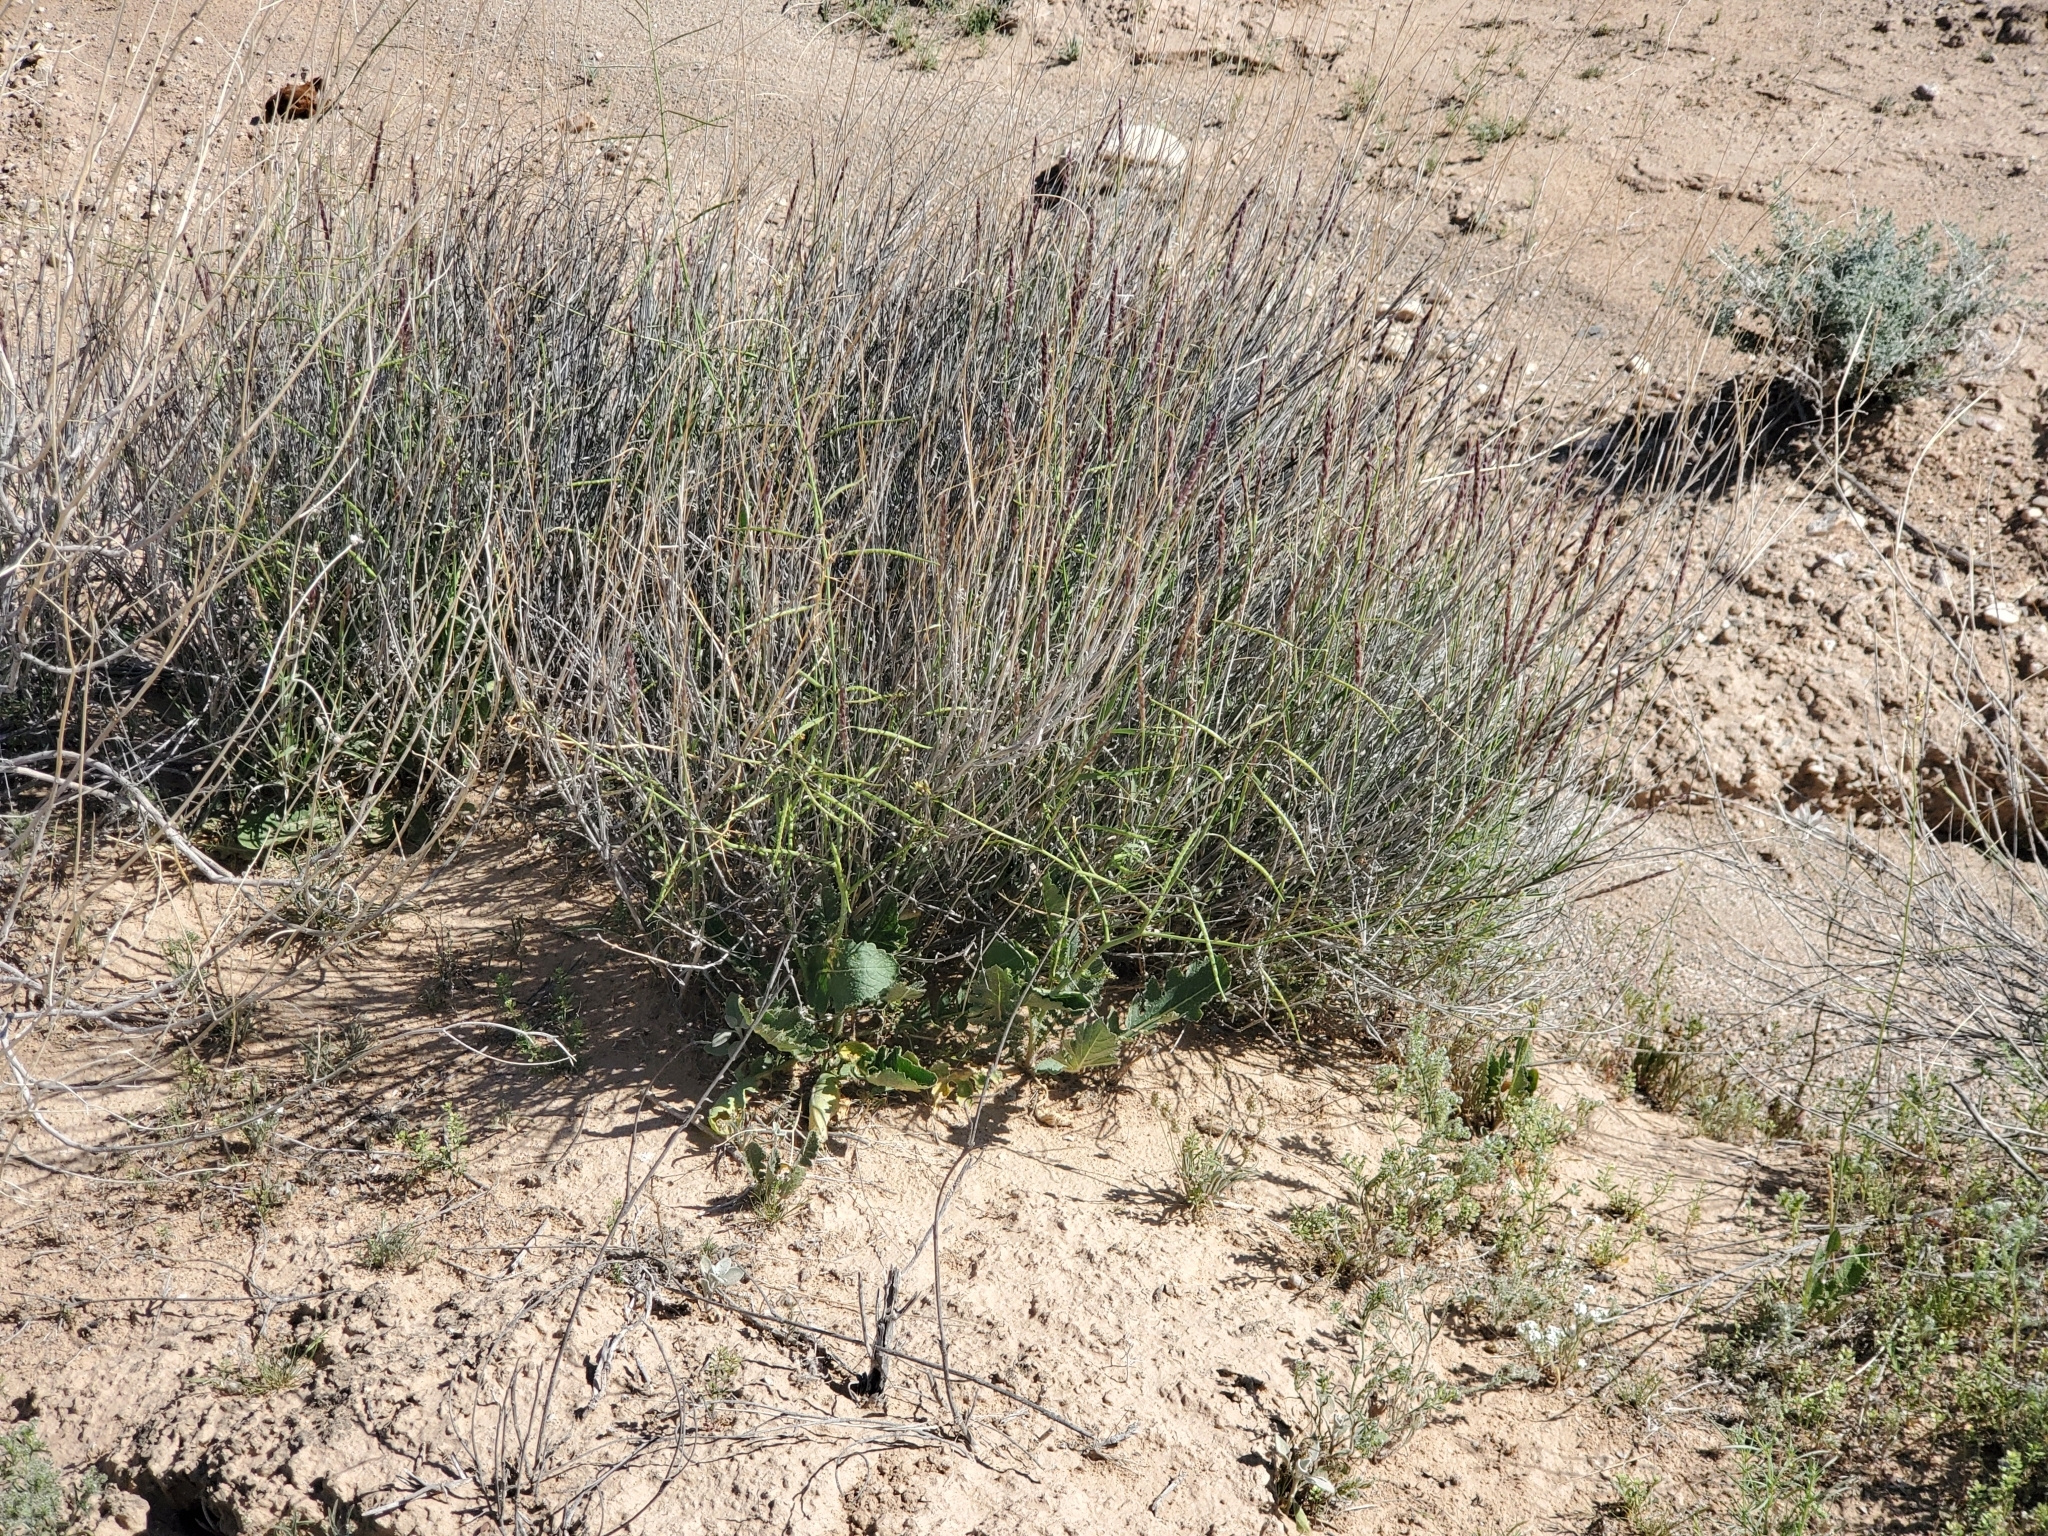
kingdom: Plantae
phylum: Tracheophyta
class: Liliopsida
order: Poales
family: Poaceae
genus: Hilaria
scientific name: Hilaria rigida
